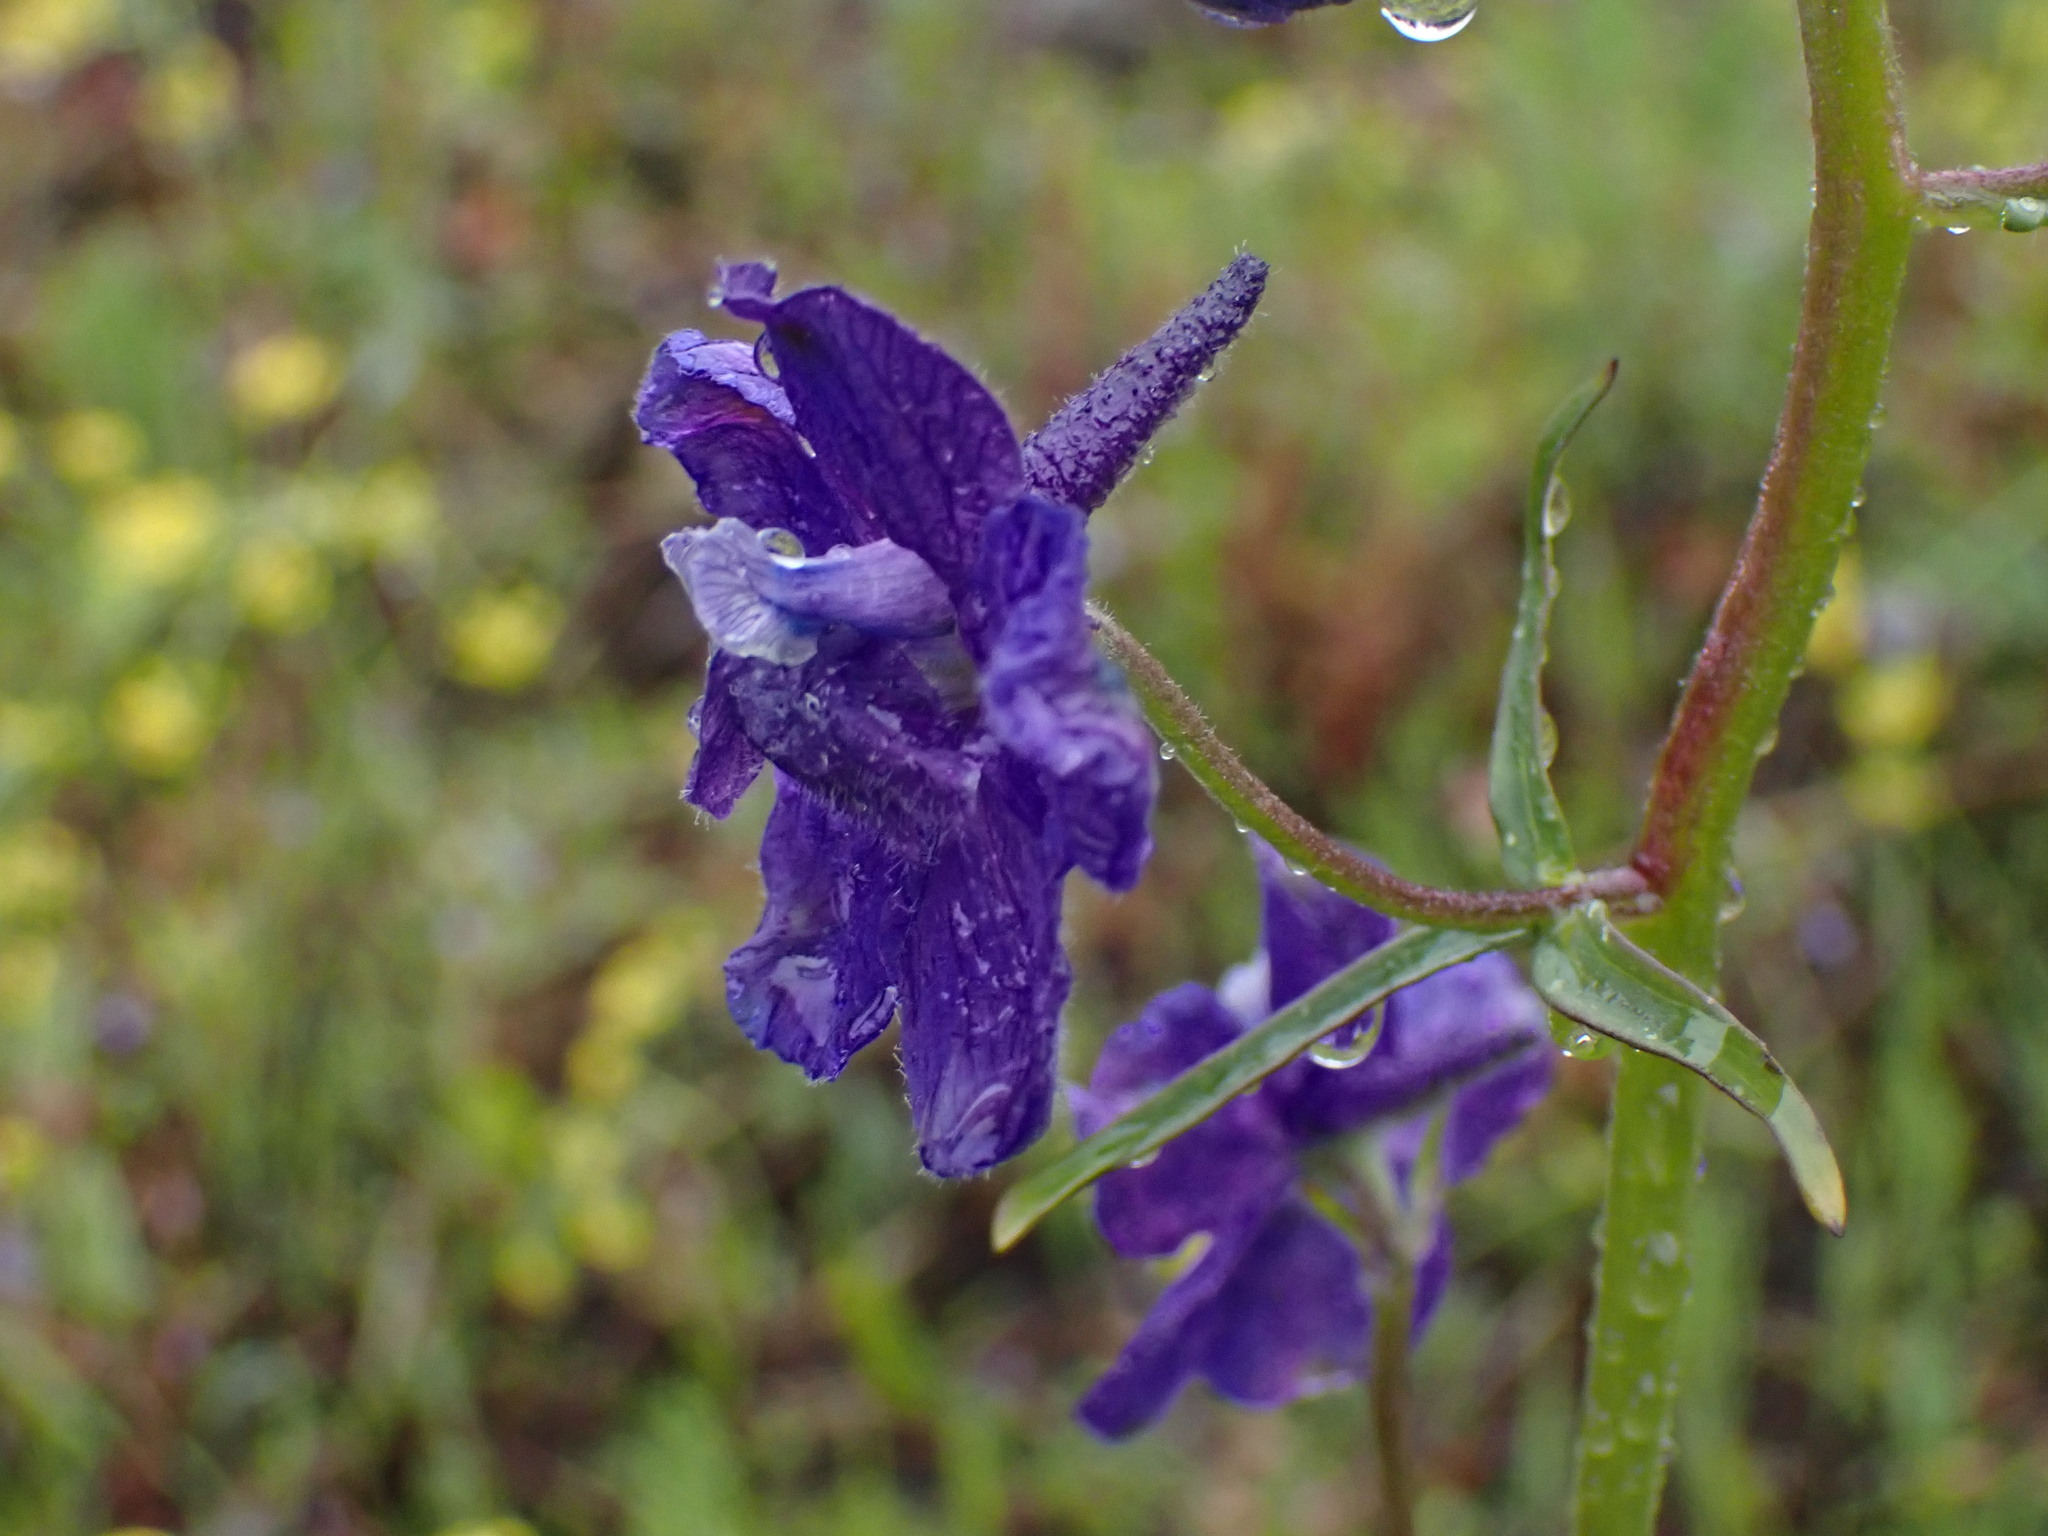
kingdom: Plantae
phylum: Tracheophyta
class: Magnoliopsida
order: Ranunculales
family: Ranunculaceae
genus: Delphinium
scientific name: Delphinium nuttallianum
